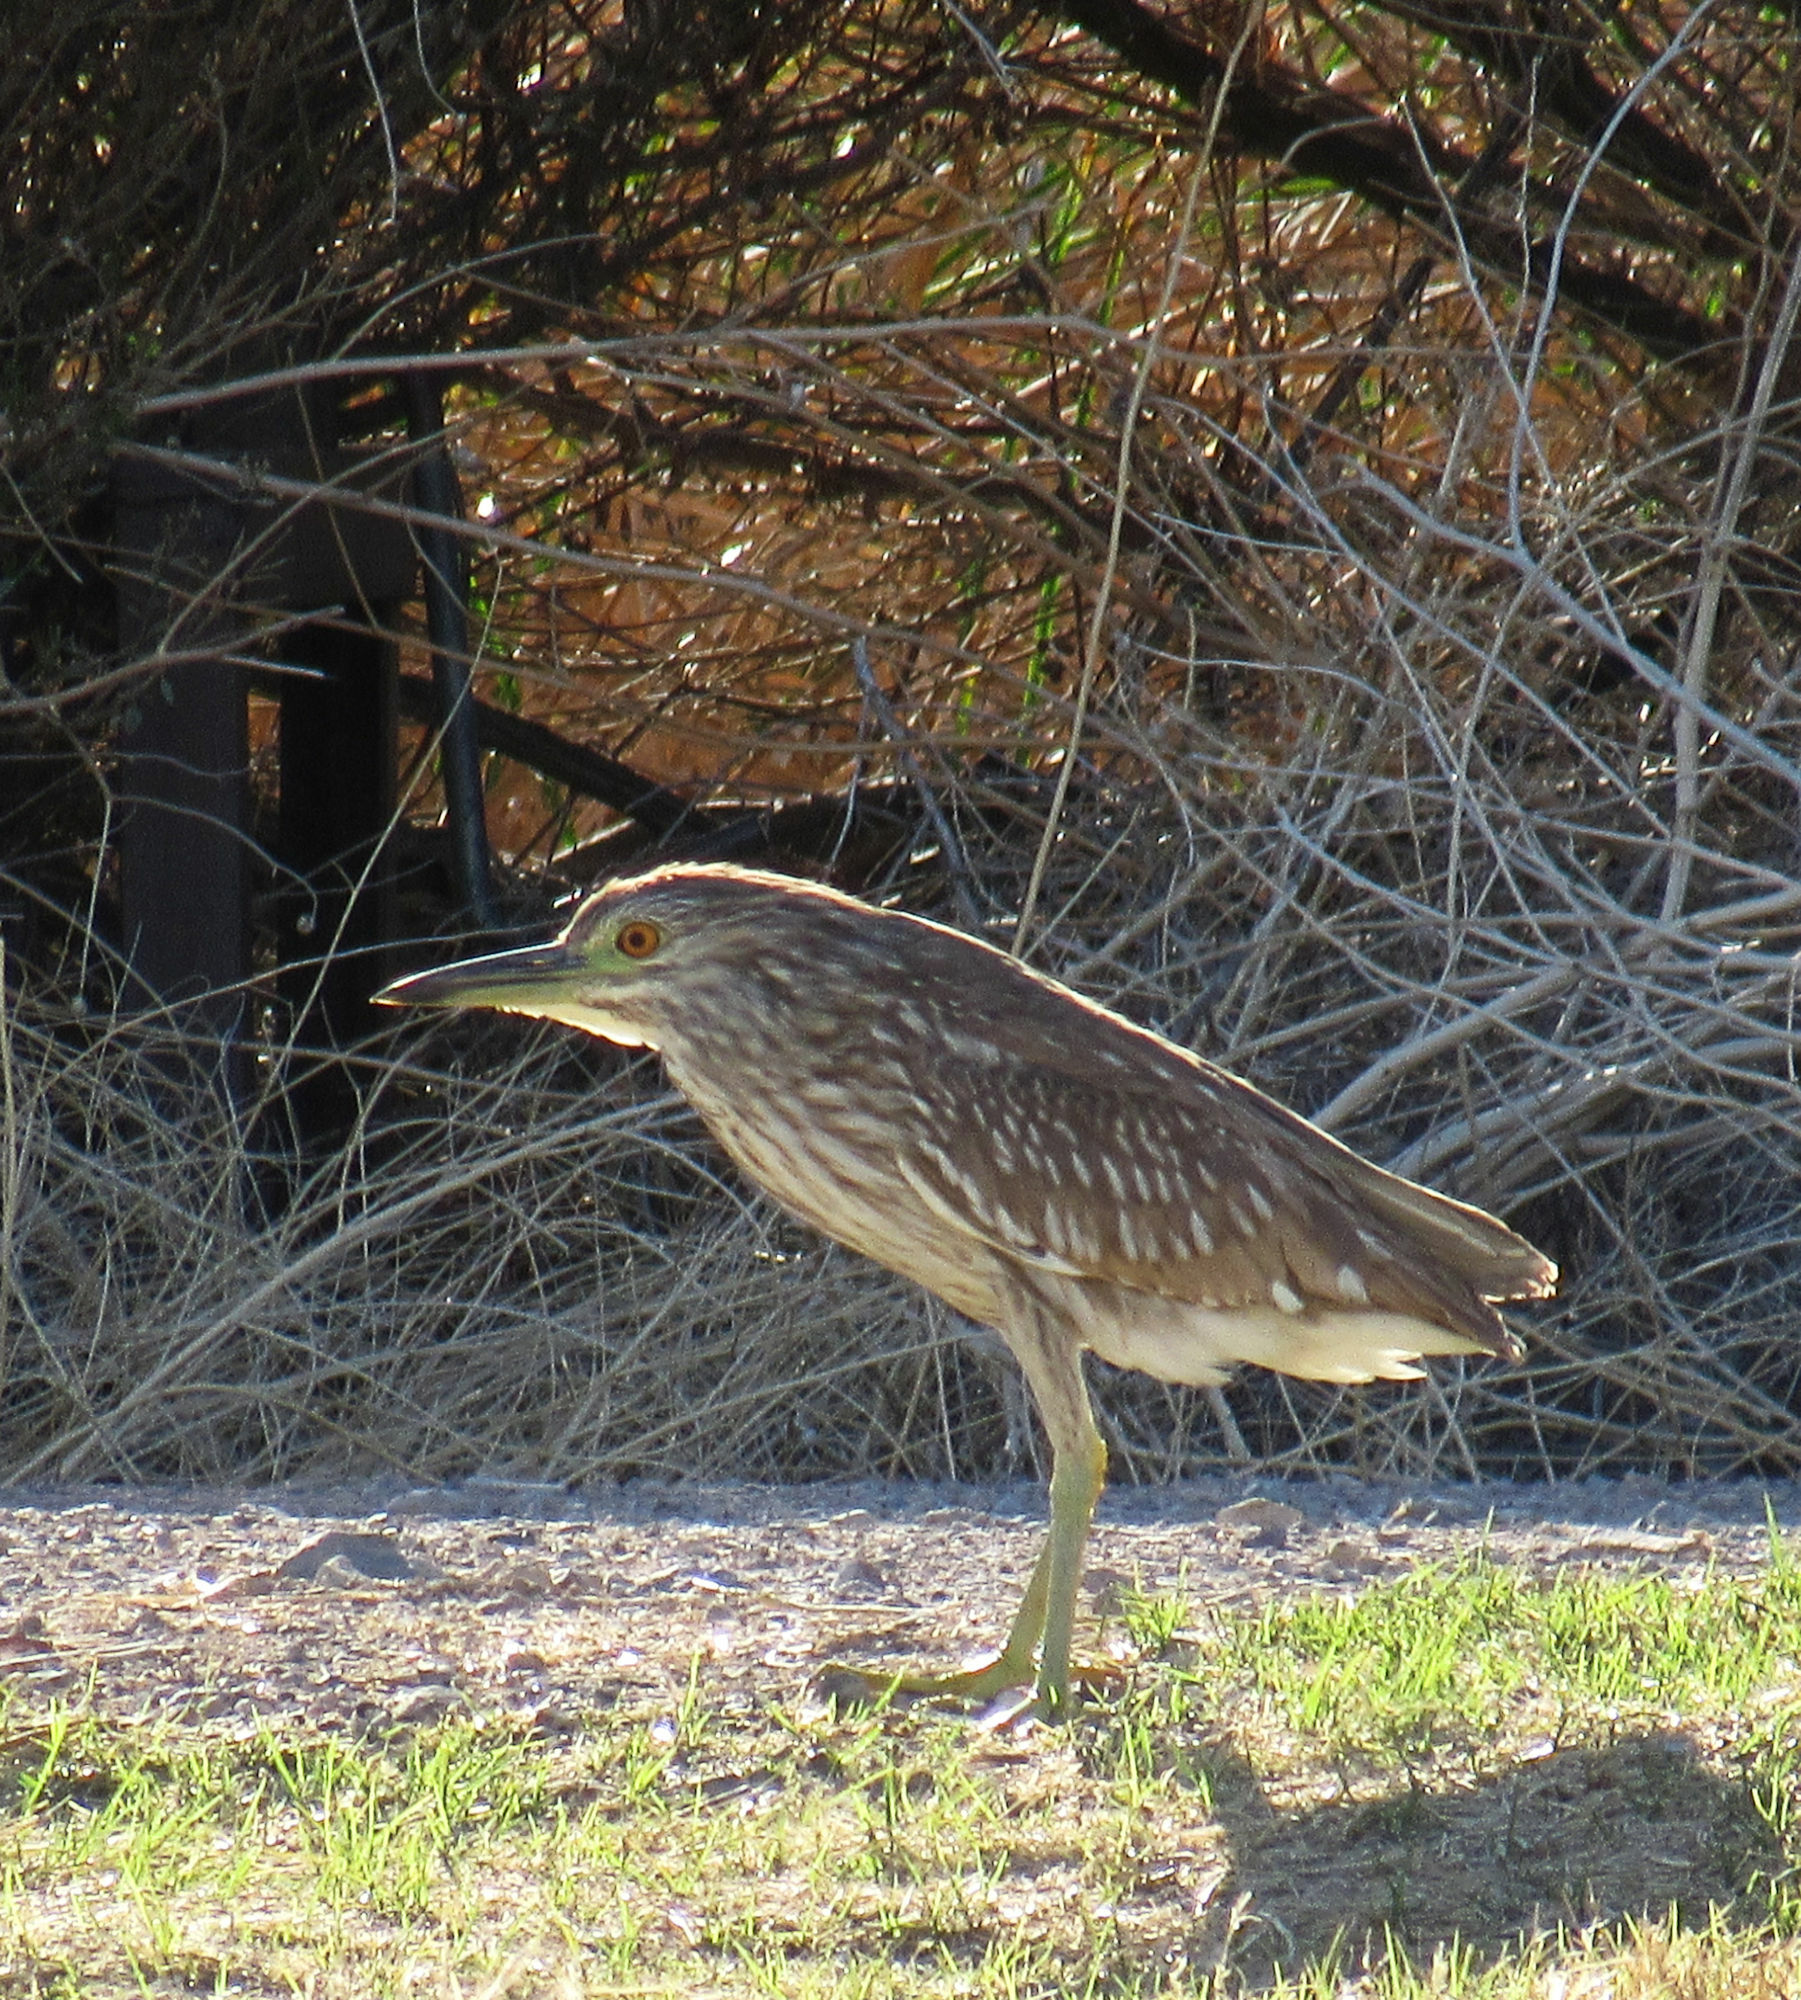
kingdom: Animalia
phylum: Chordata
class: Aves
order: Pelecaniformes
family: Ardeidae
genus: Nycticorax
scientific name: Nycticorax nycticorax
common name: Black-crowned night heron
